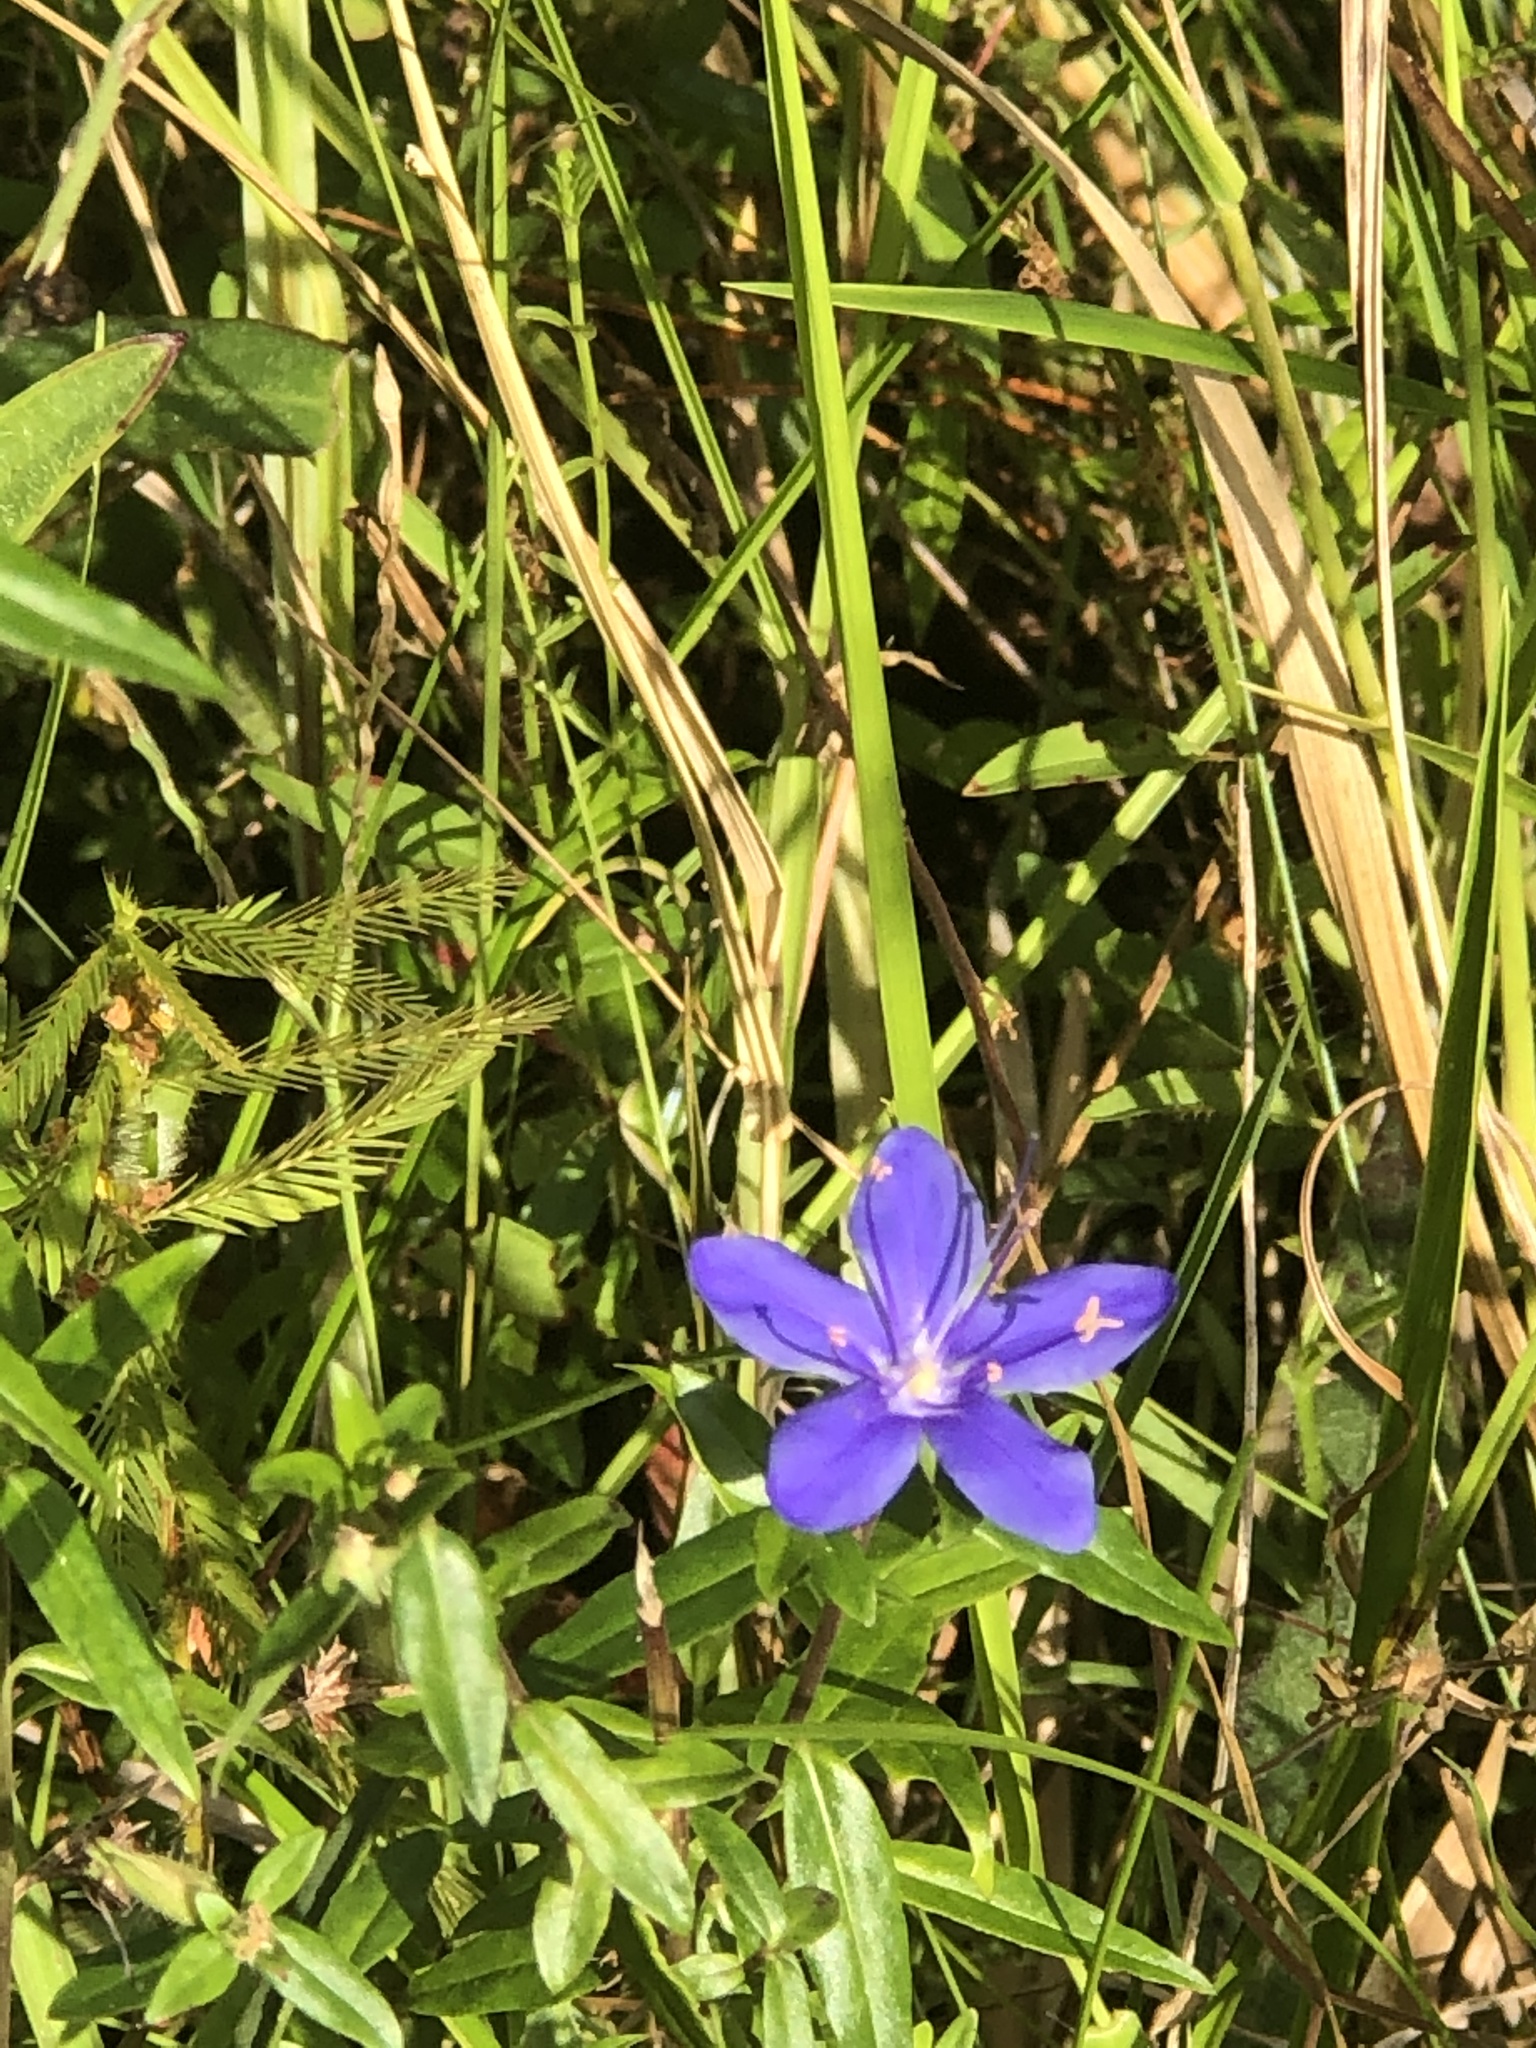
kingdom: Plantae
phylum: Tracheophyta
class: Magnoliopsida
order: Solanales
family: Hydroleaceae
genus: Hydrolea
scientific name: Hydrolea corymbosa
